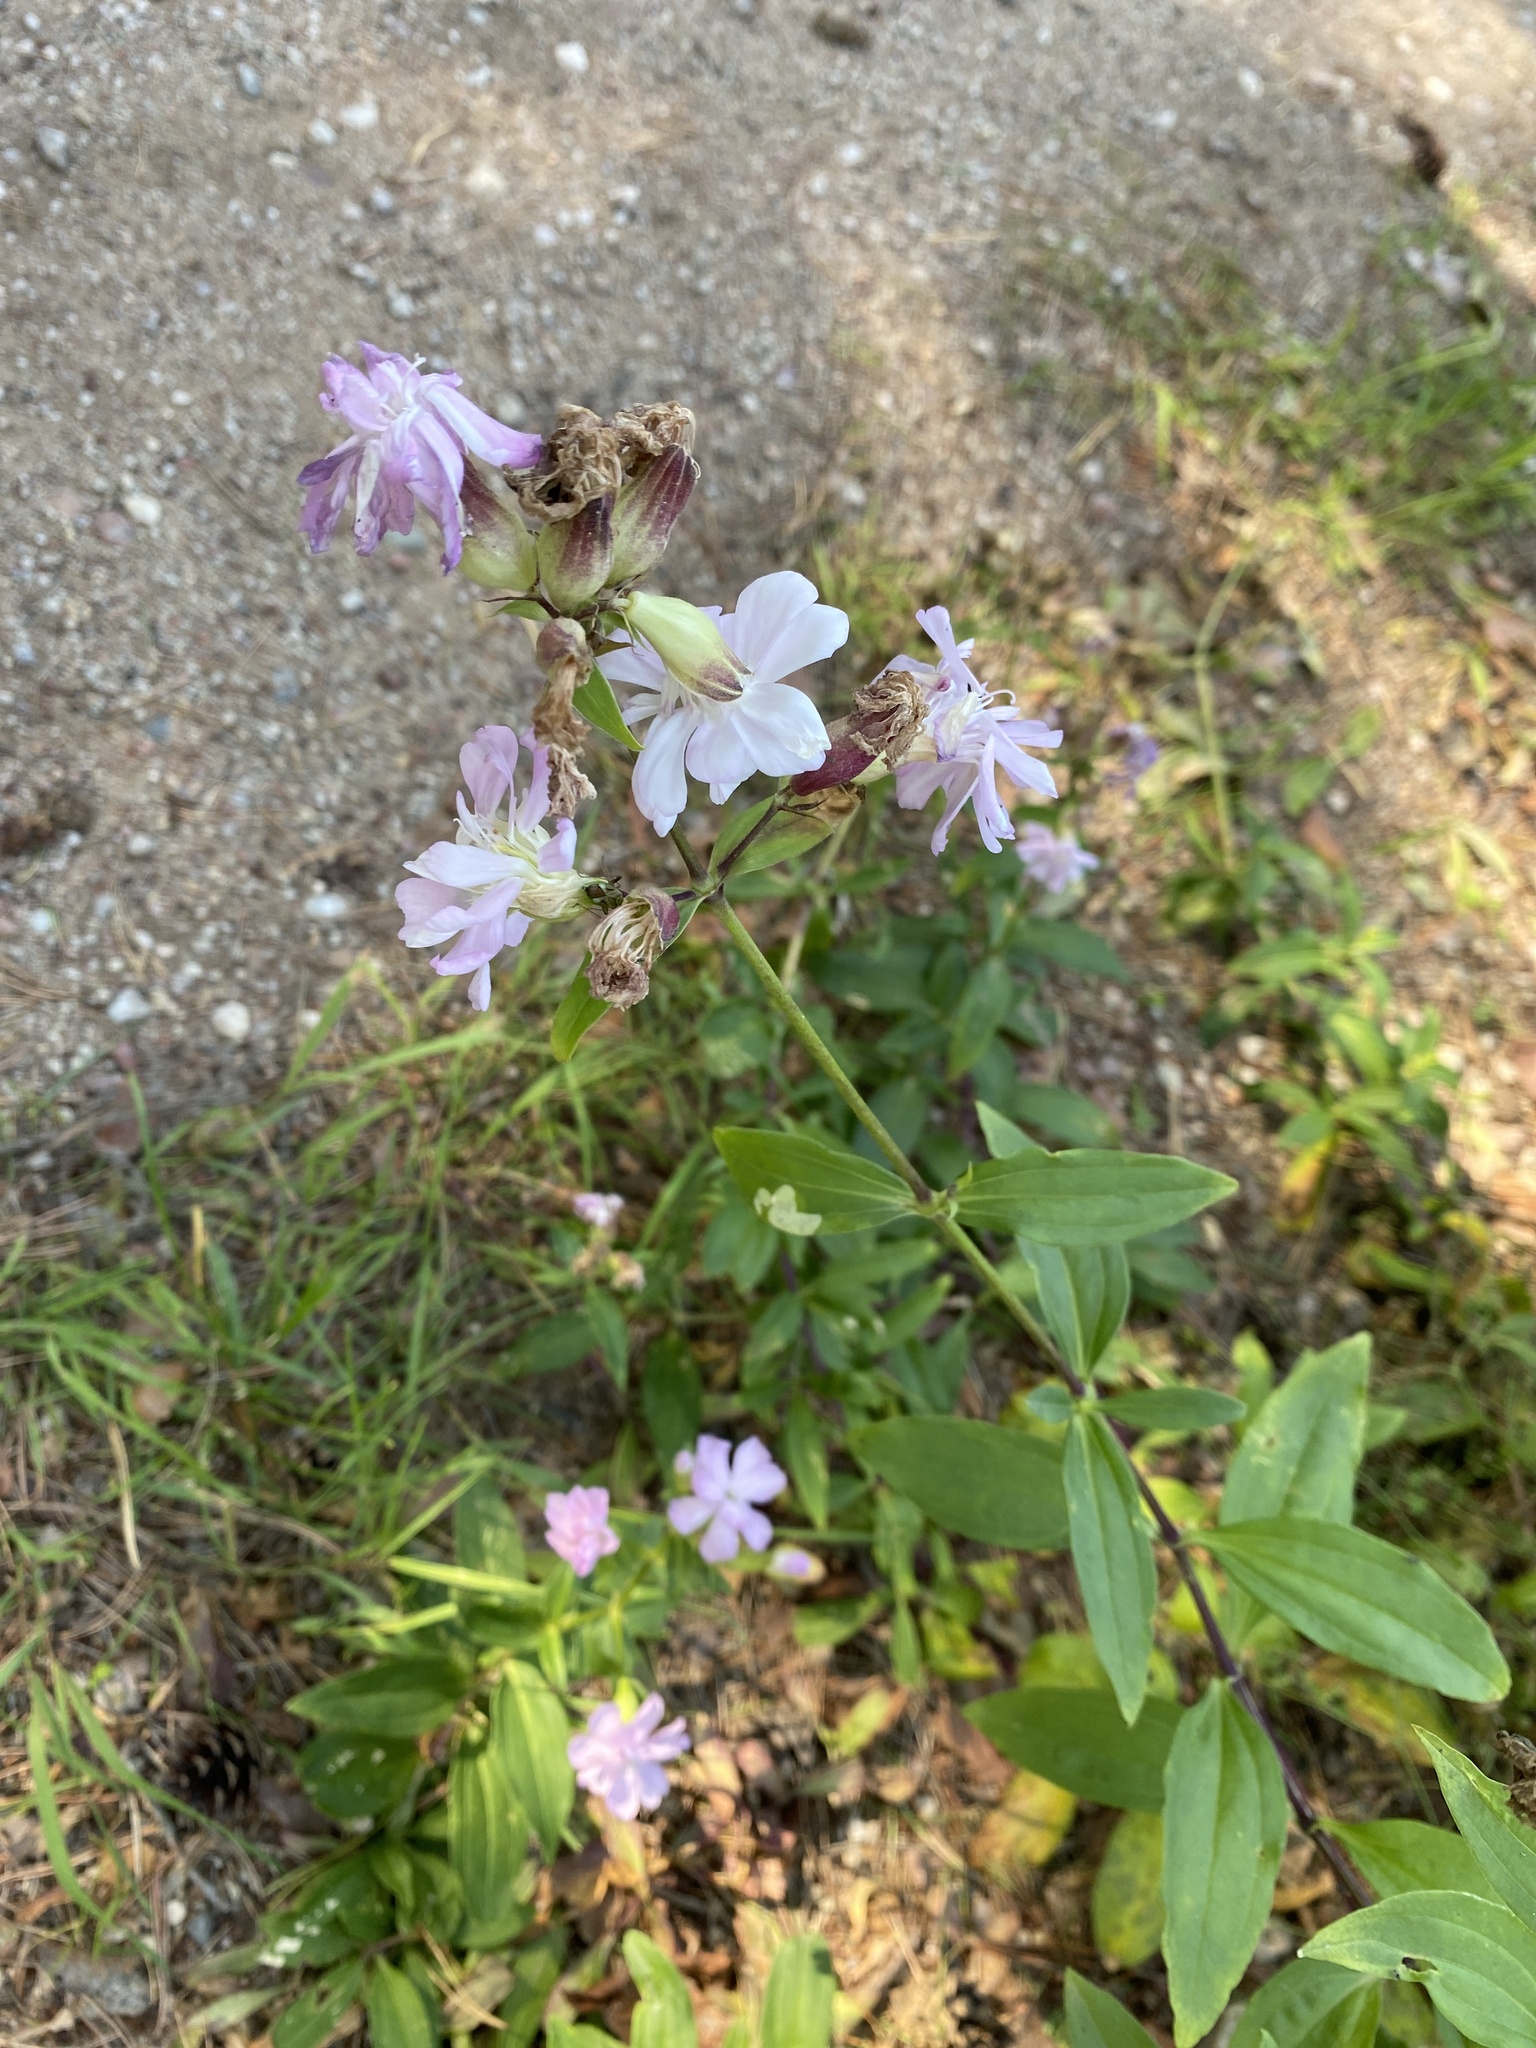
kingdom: Plantae
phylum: Tracheophyta
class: Magnoliopsida
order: Caryophyllales
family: Caryophyllaceae
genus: Saponaria
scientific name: Saponaria officinalis
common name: Soapwort
